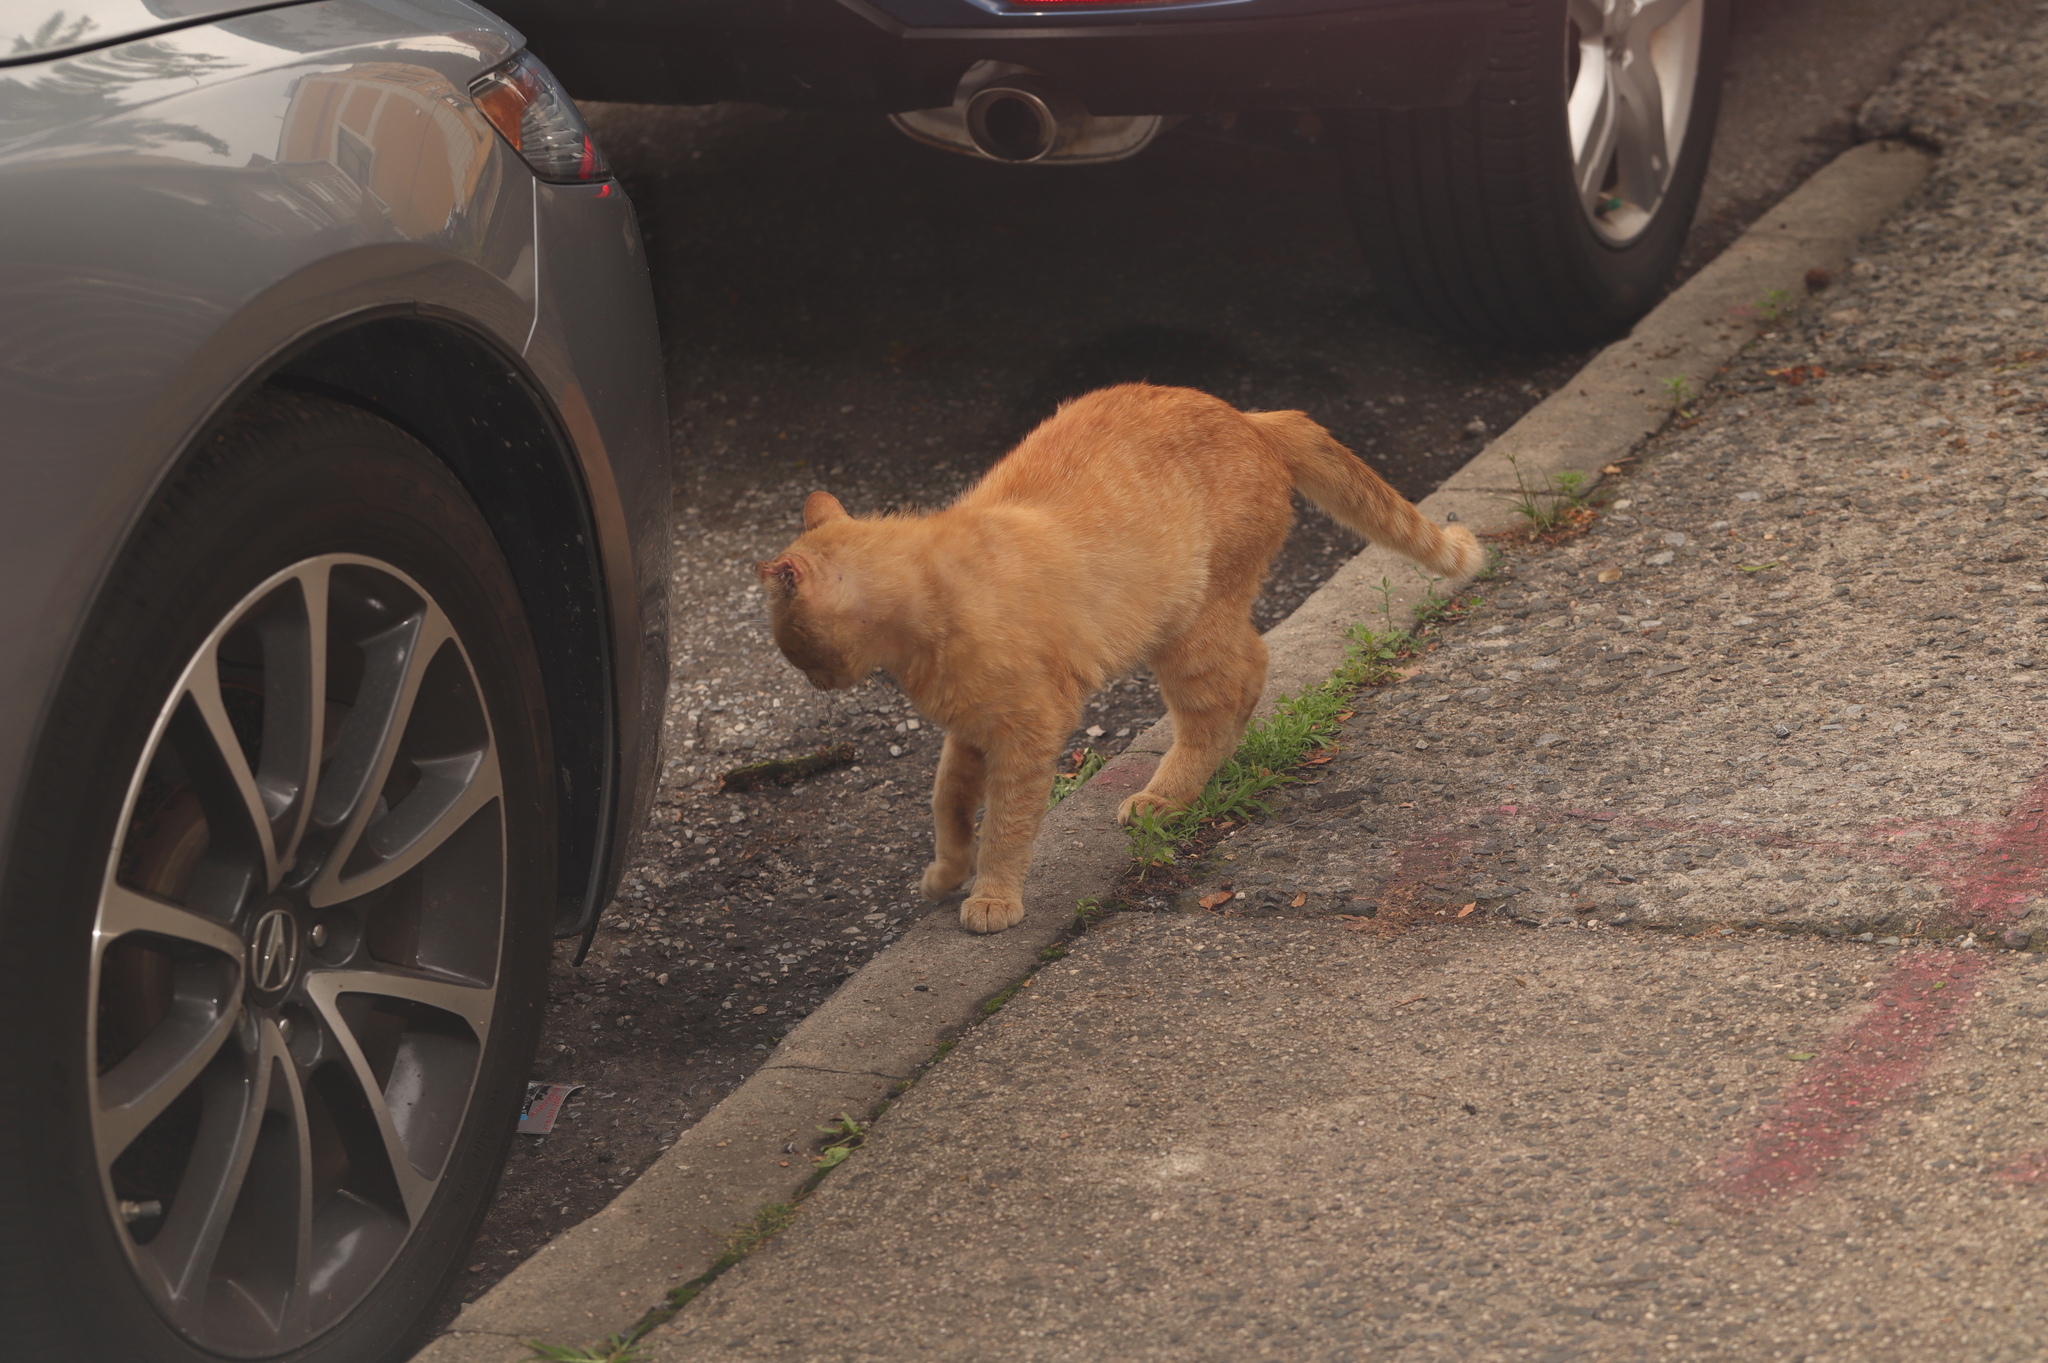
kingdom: Animalia
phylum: Chordata
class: Mammalia
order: Carnivora
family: Felidae
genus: Felis
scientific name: Felis catus
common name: Domestic cat
